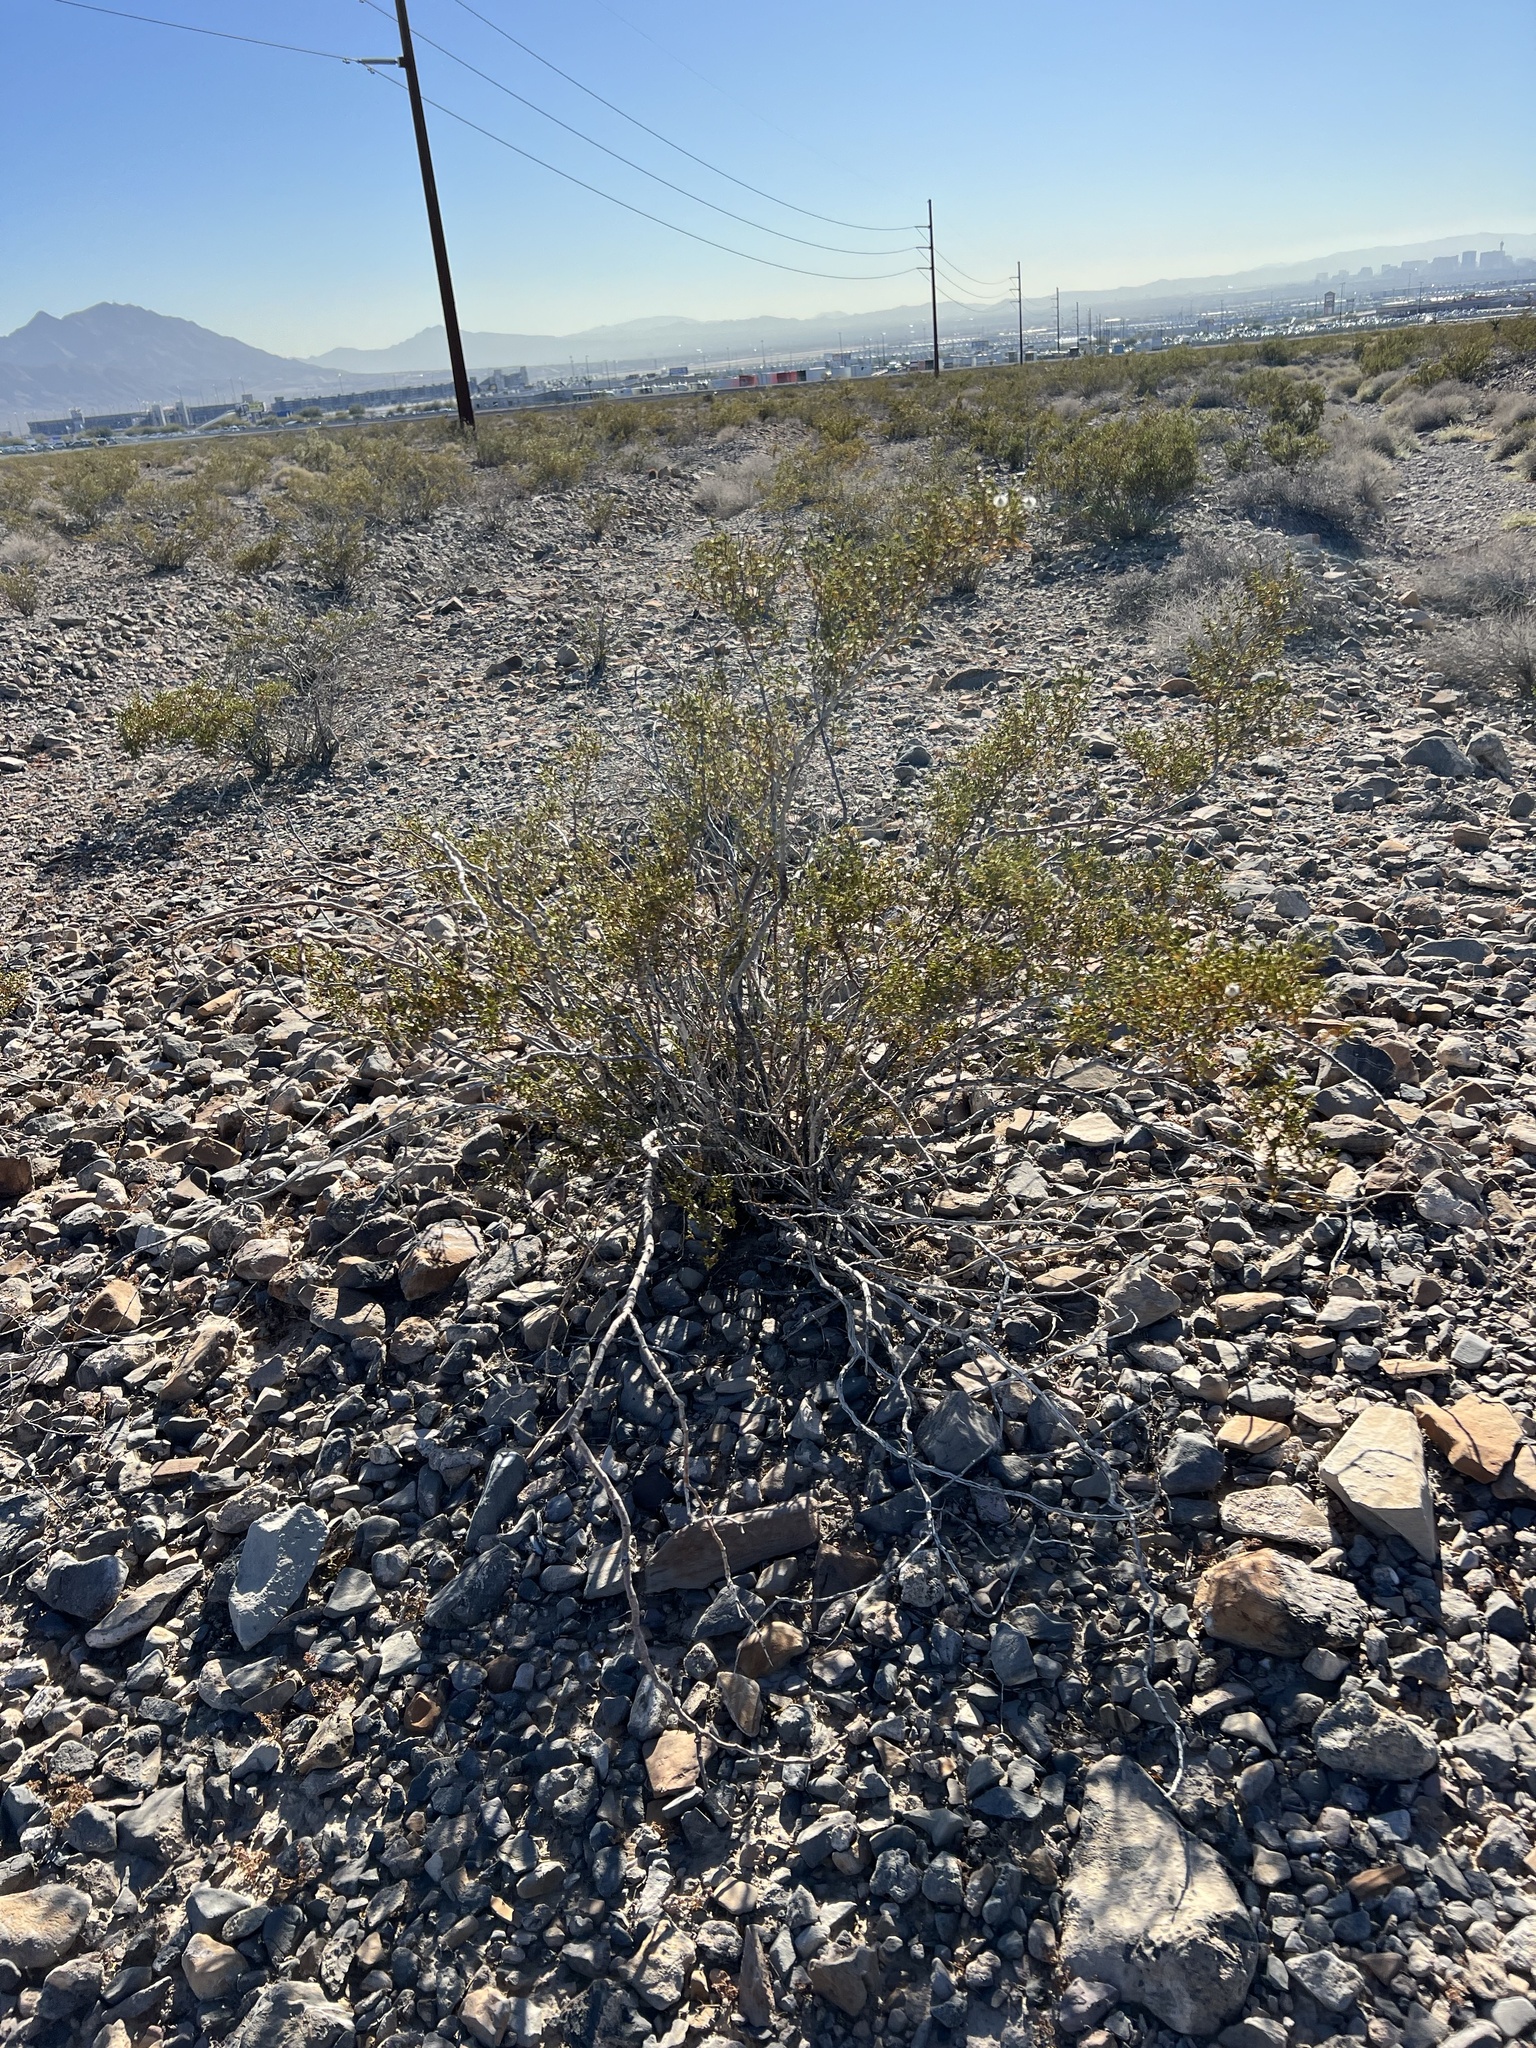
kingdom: Plantae
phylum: Tracheophyta
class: Magnoliopsida
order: Zygophyllales
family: Zygophyllaceae
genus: Larrea
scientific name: Larrea tridentata
